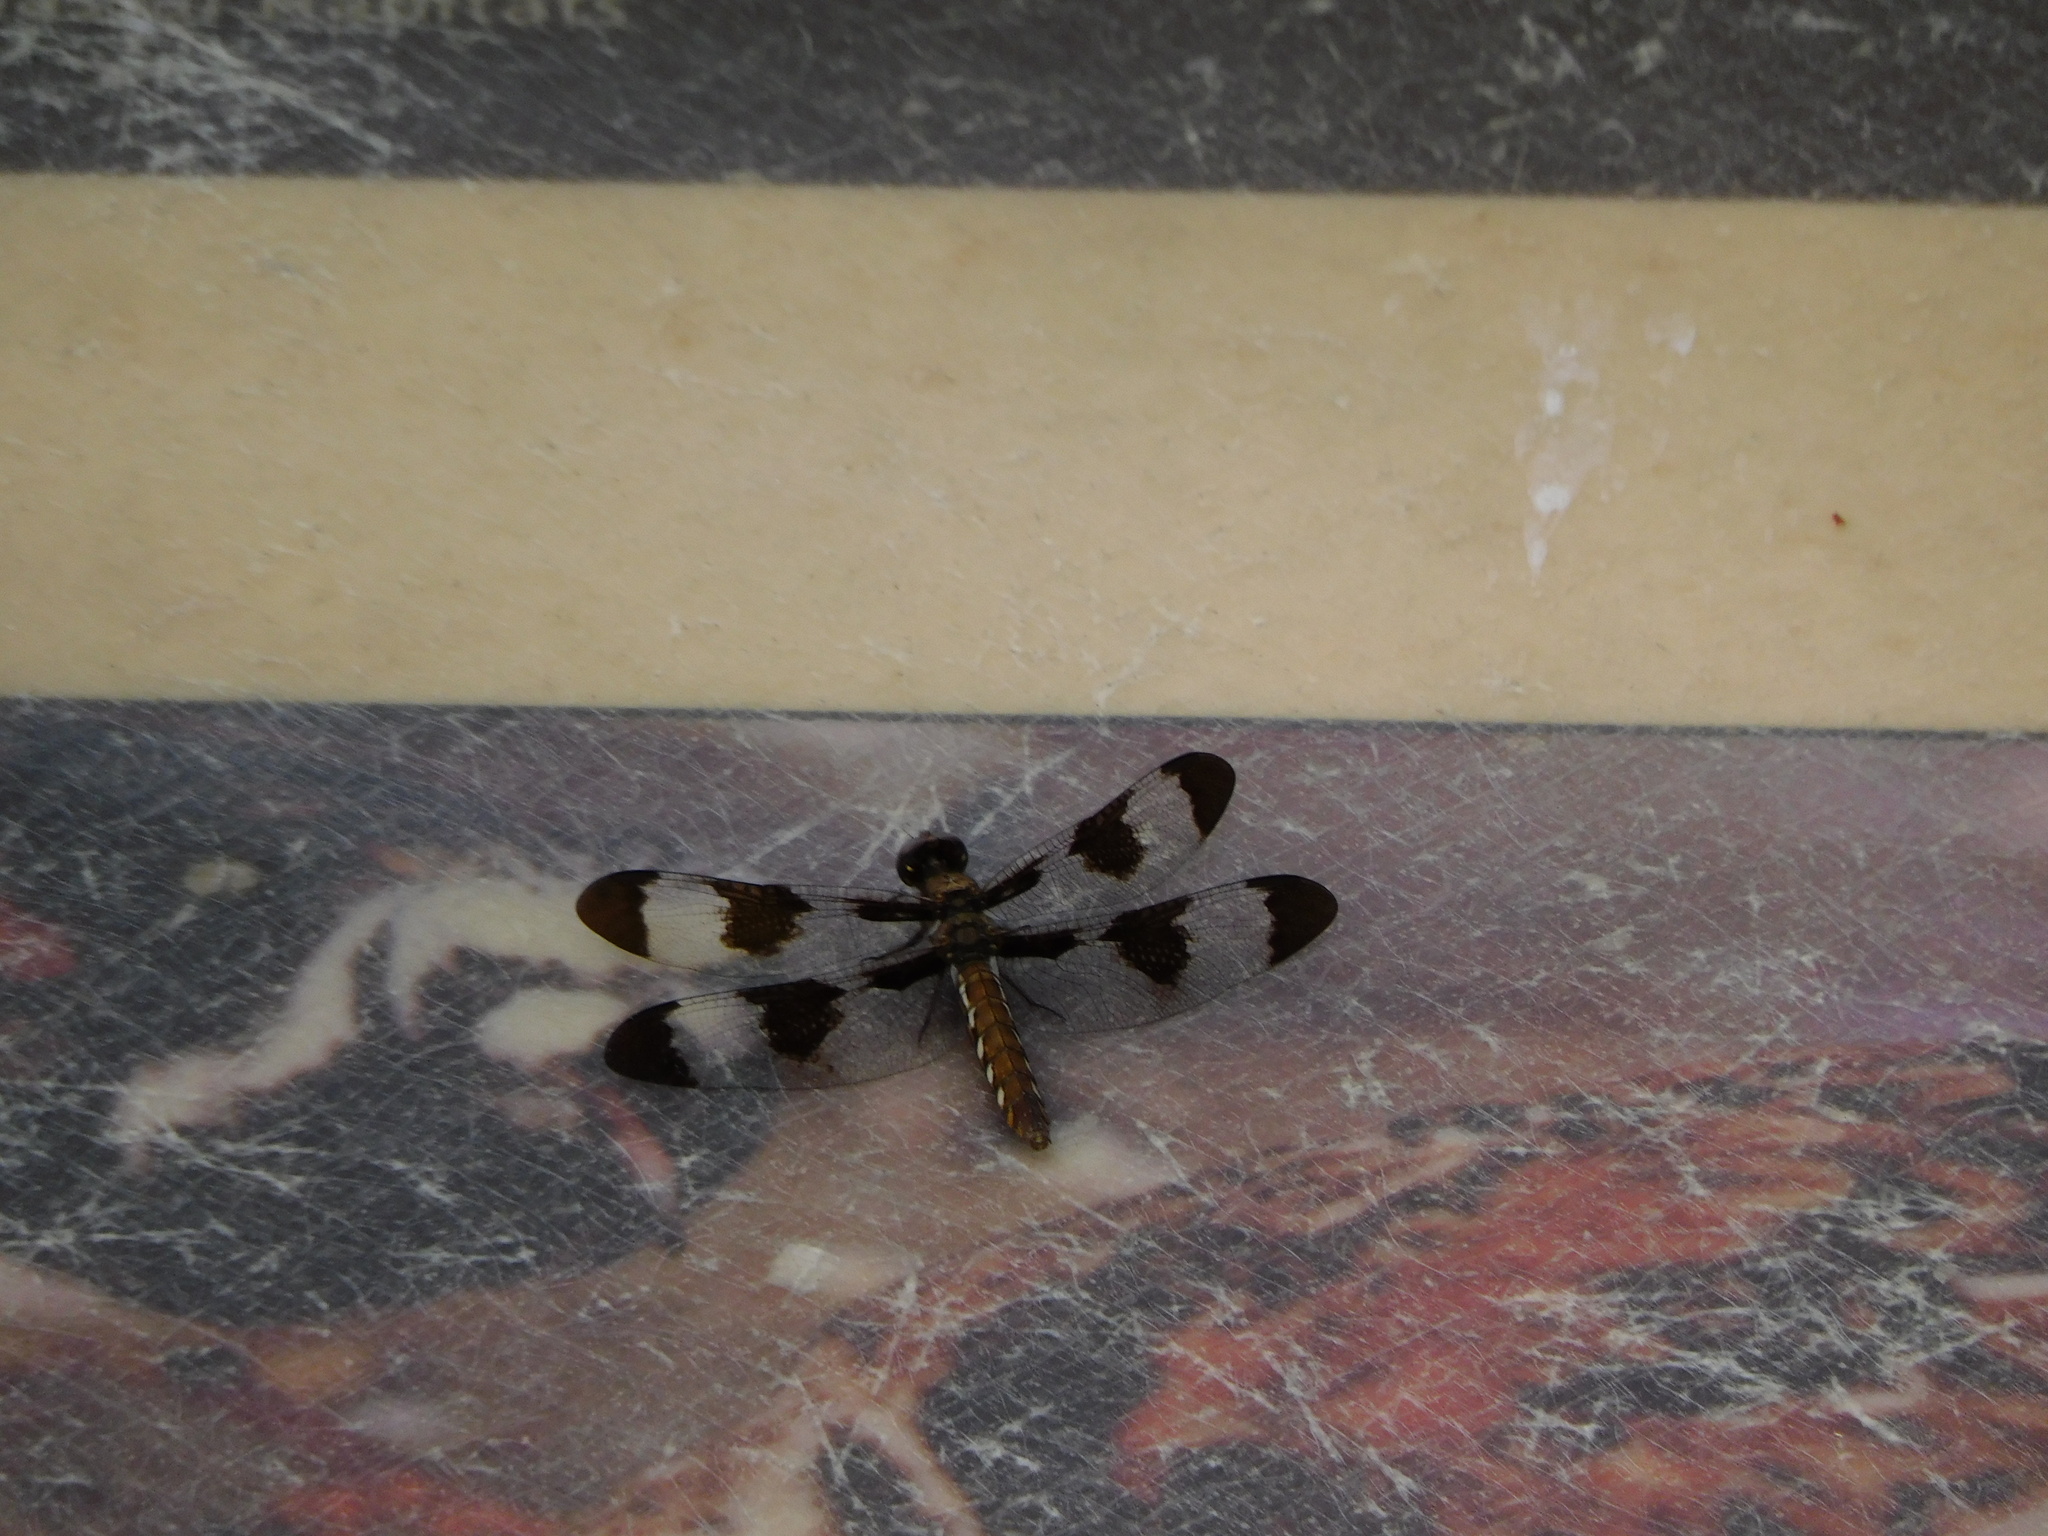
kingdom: Animalia
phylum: Arthropoda
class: Insecta
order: Odonata
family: Libellulidae
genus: Plathemis
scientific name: Plathemis lydia
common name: Common whitetail
